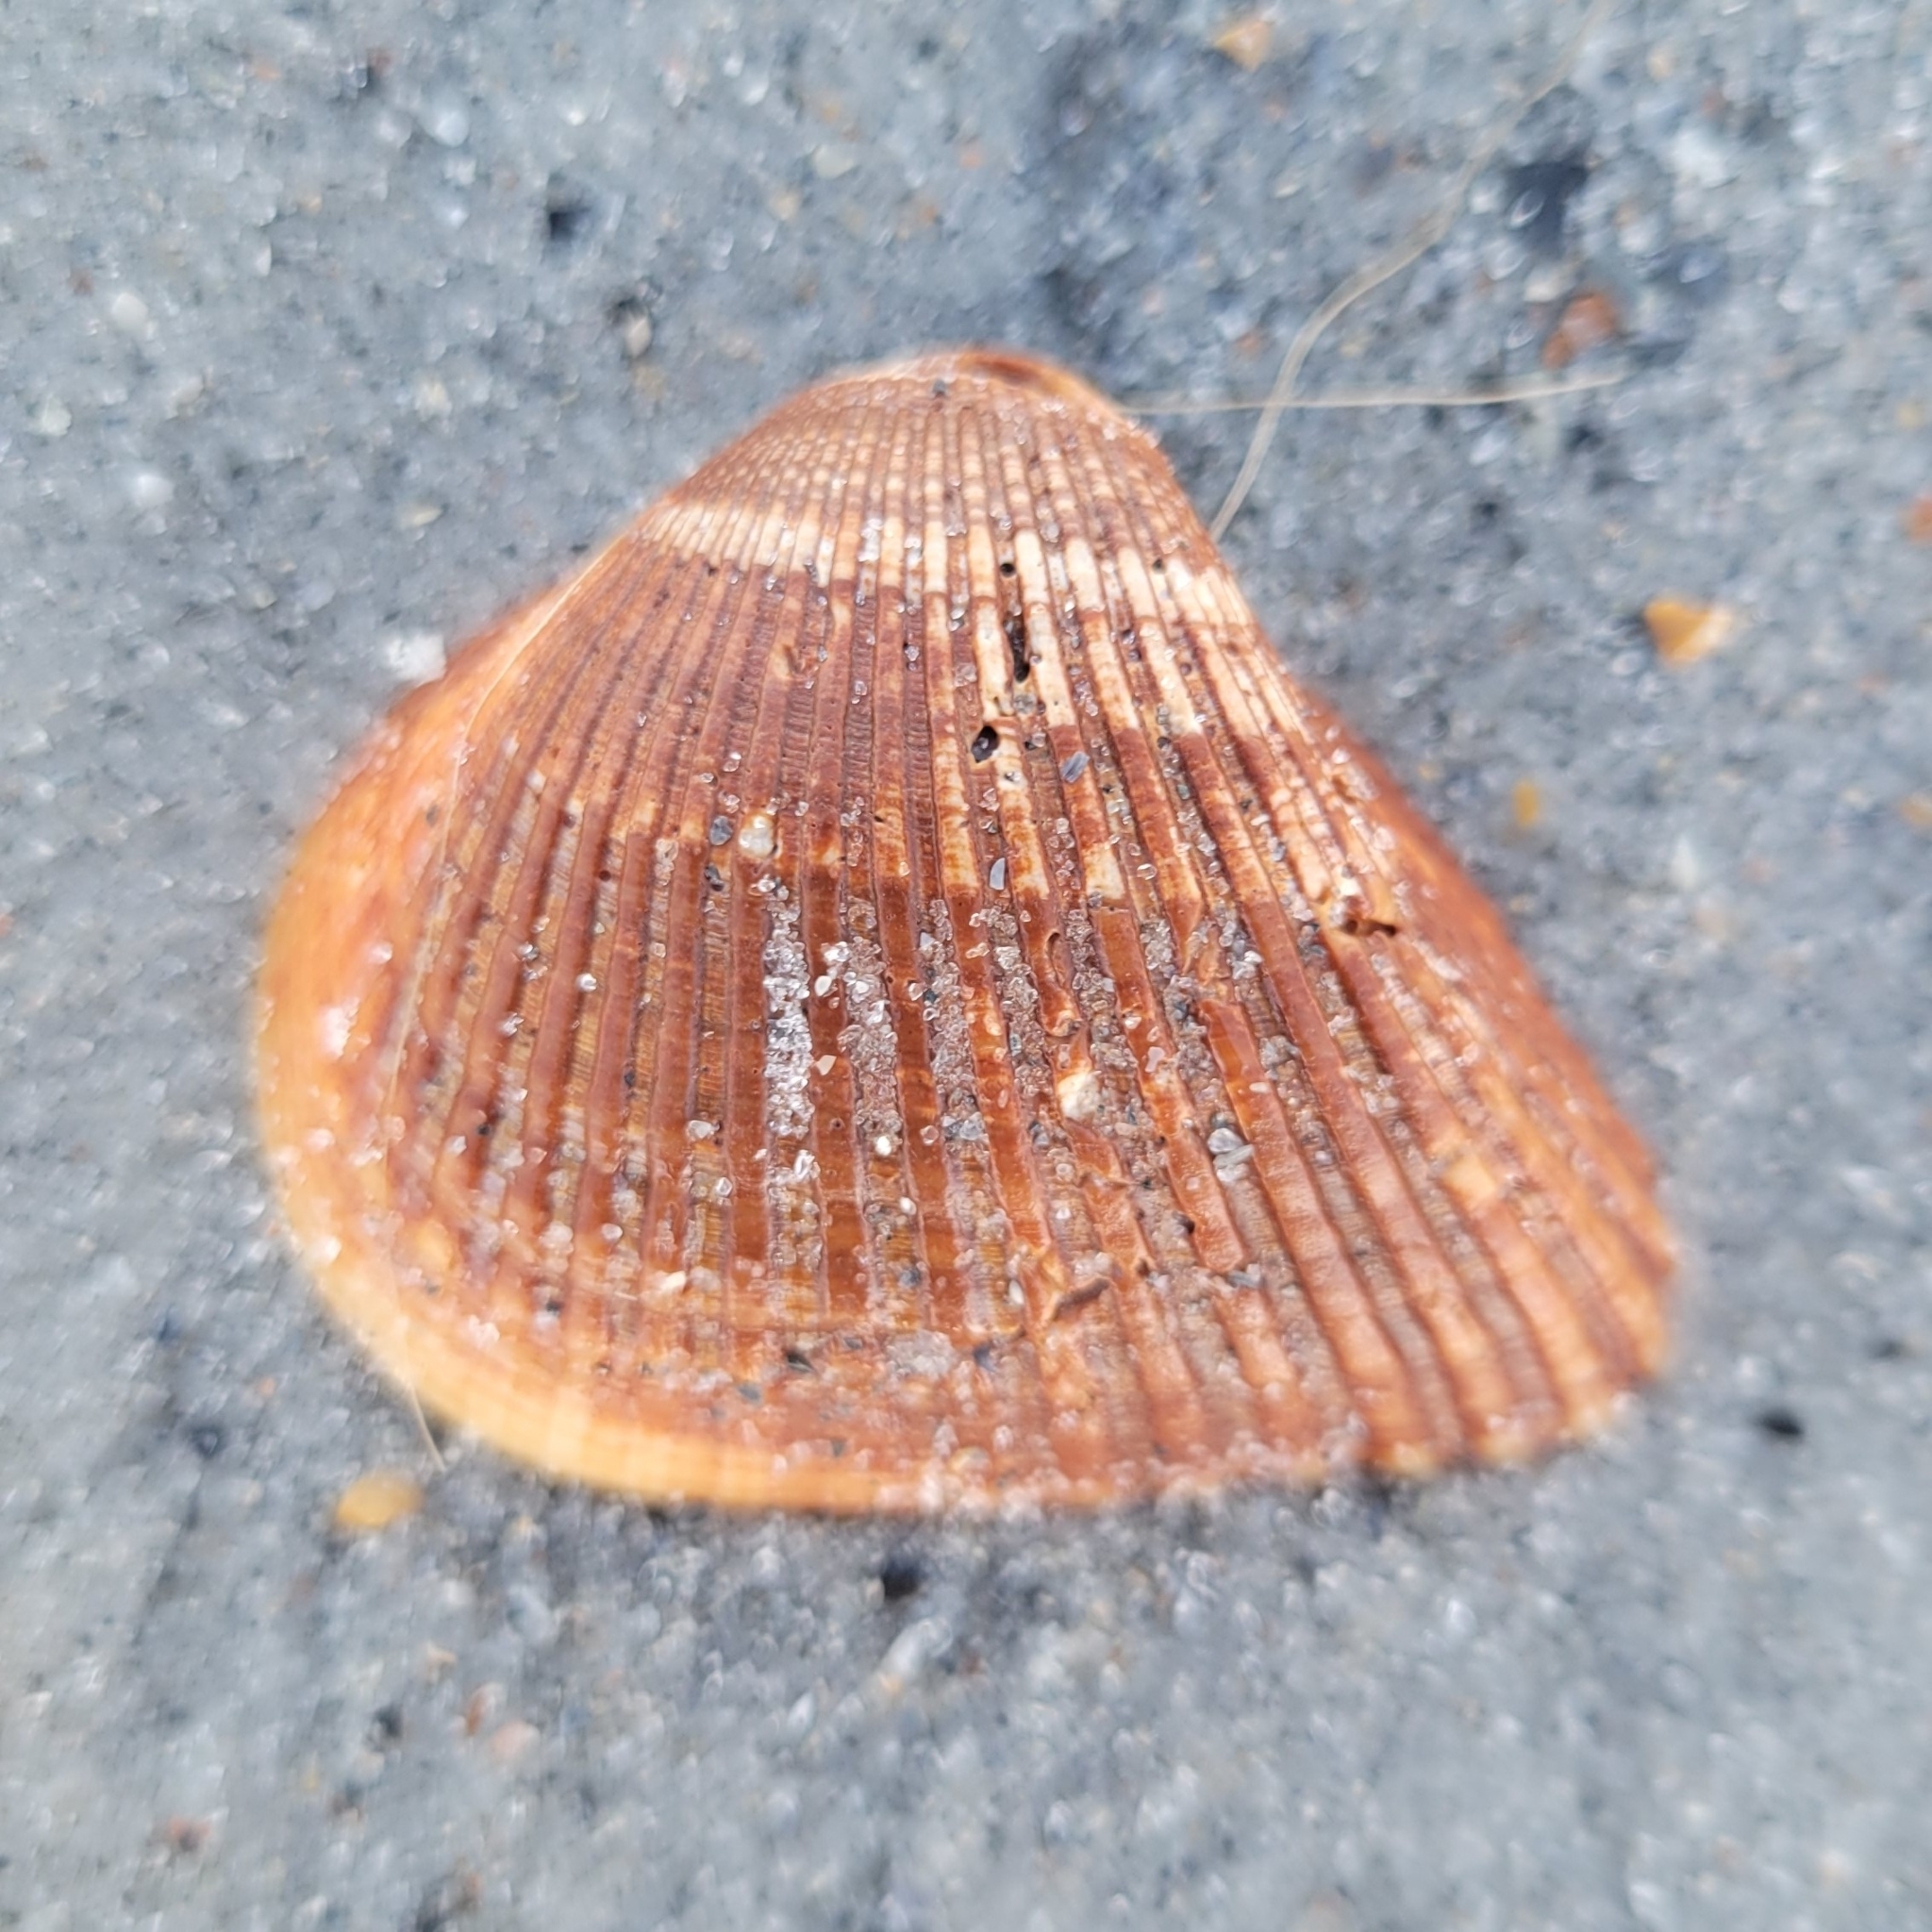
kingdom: Animalia
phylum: Mollusca
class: Bivalvia
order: Arcida
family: Noetiidae
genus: Noetia
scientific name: Noetia ponderosa
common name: Ponderous ark
